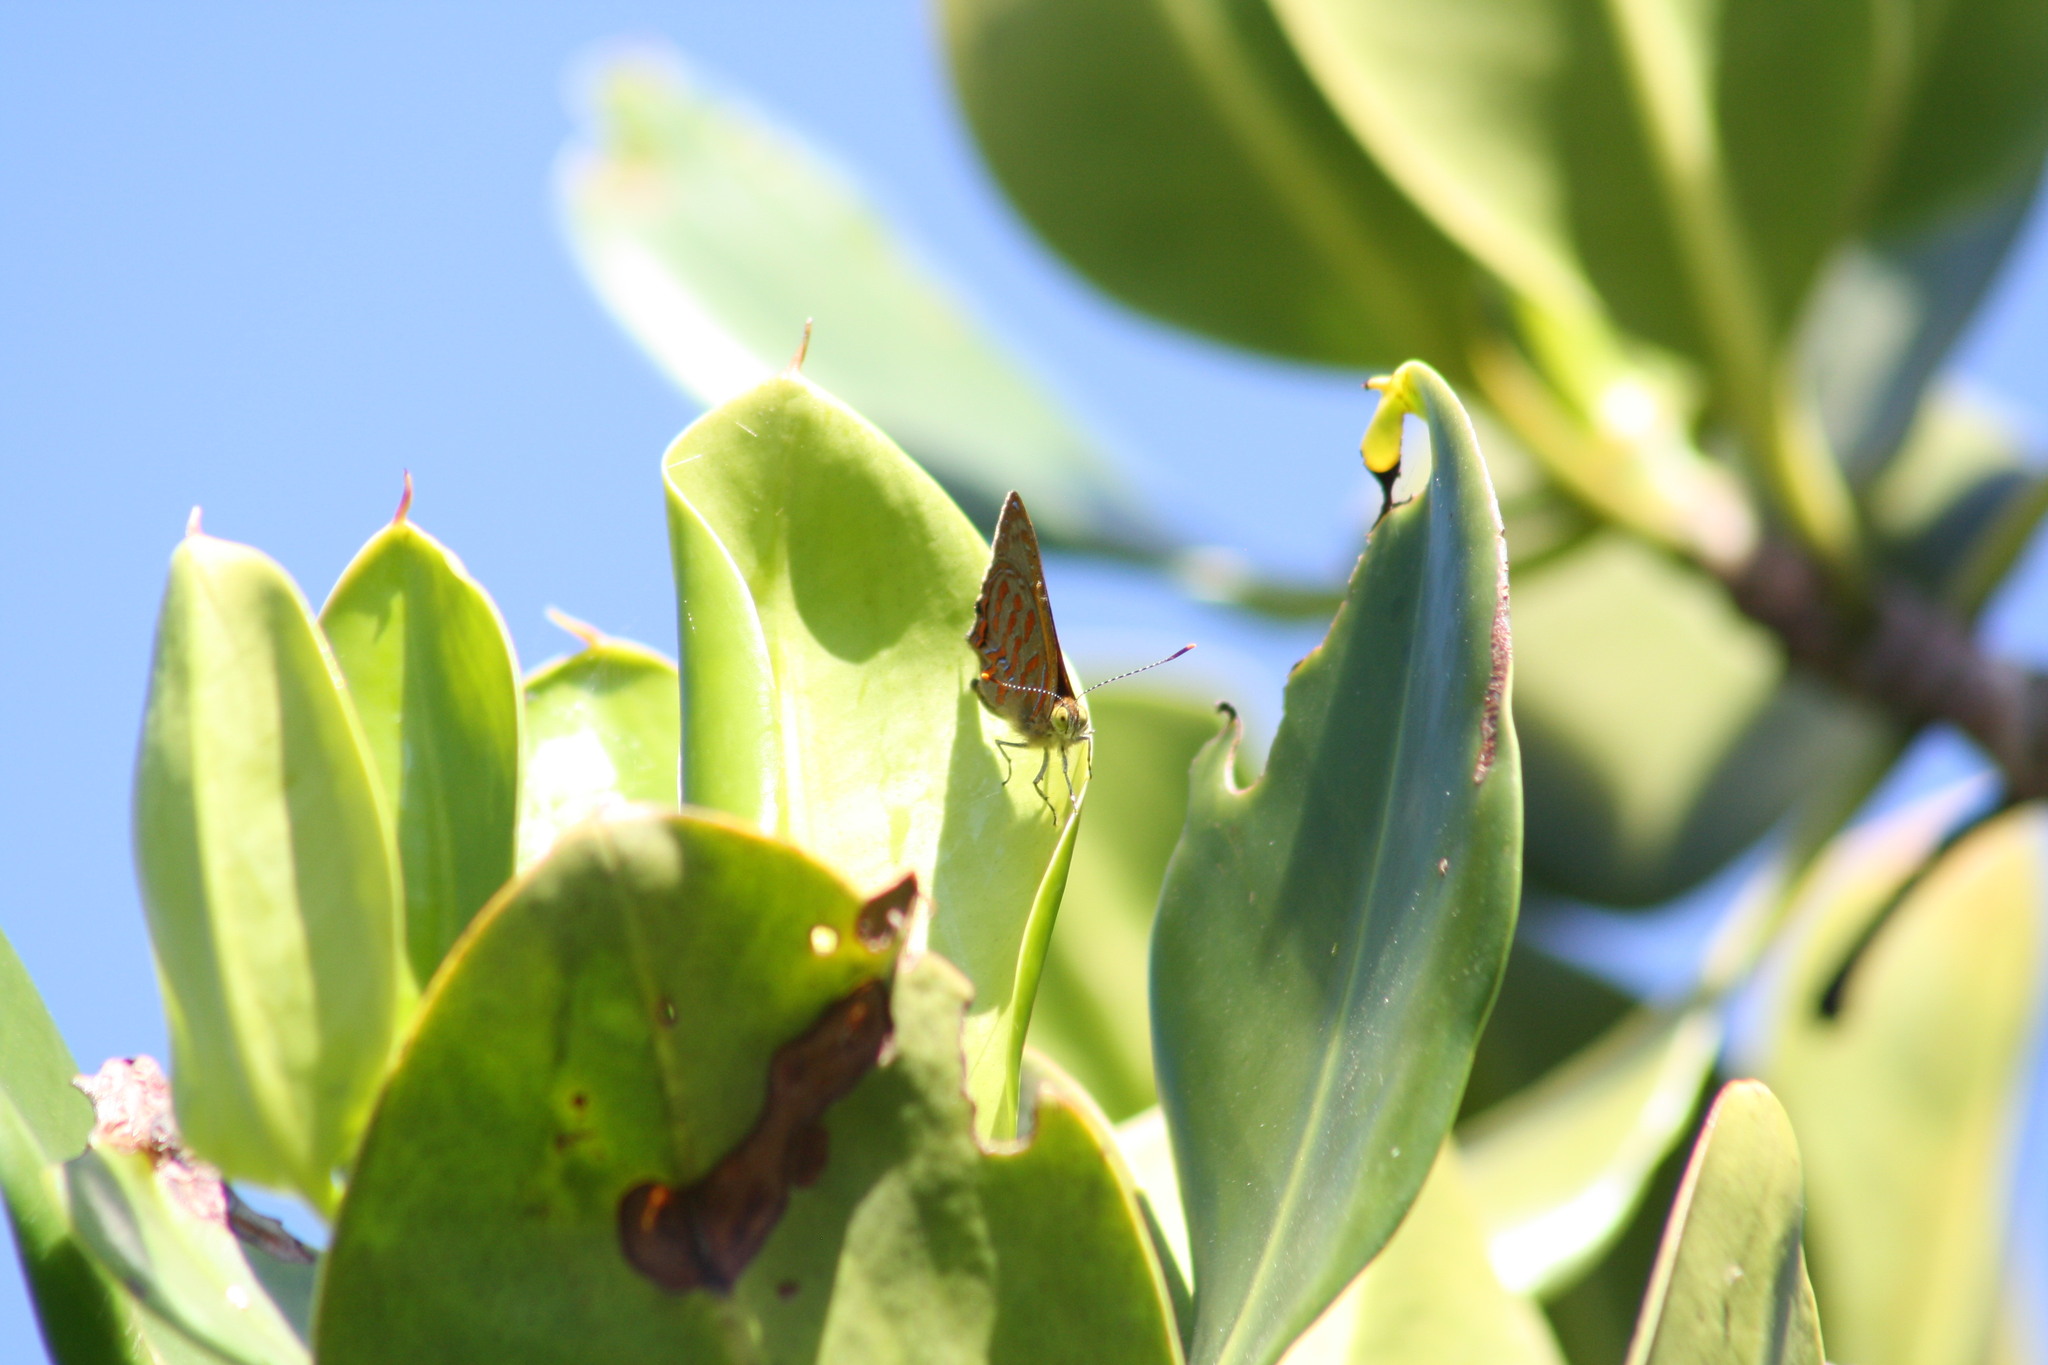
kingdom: Animalia
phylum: Arthropoda
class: Insecta
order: Lepidoptera
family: Lycaenidae
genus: Hypochrysops
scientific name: Hypochrysops apelles
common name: Copper jewel
